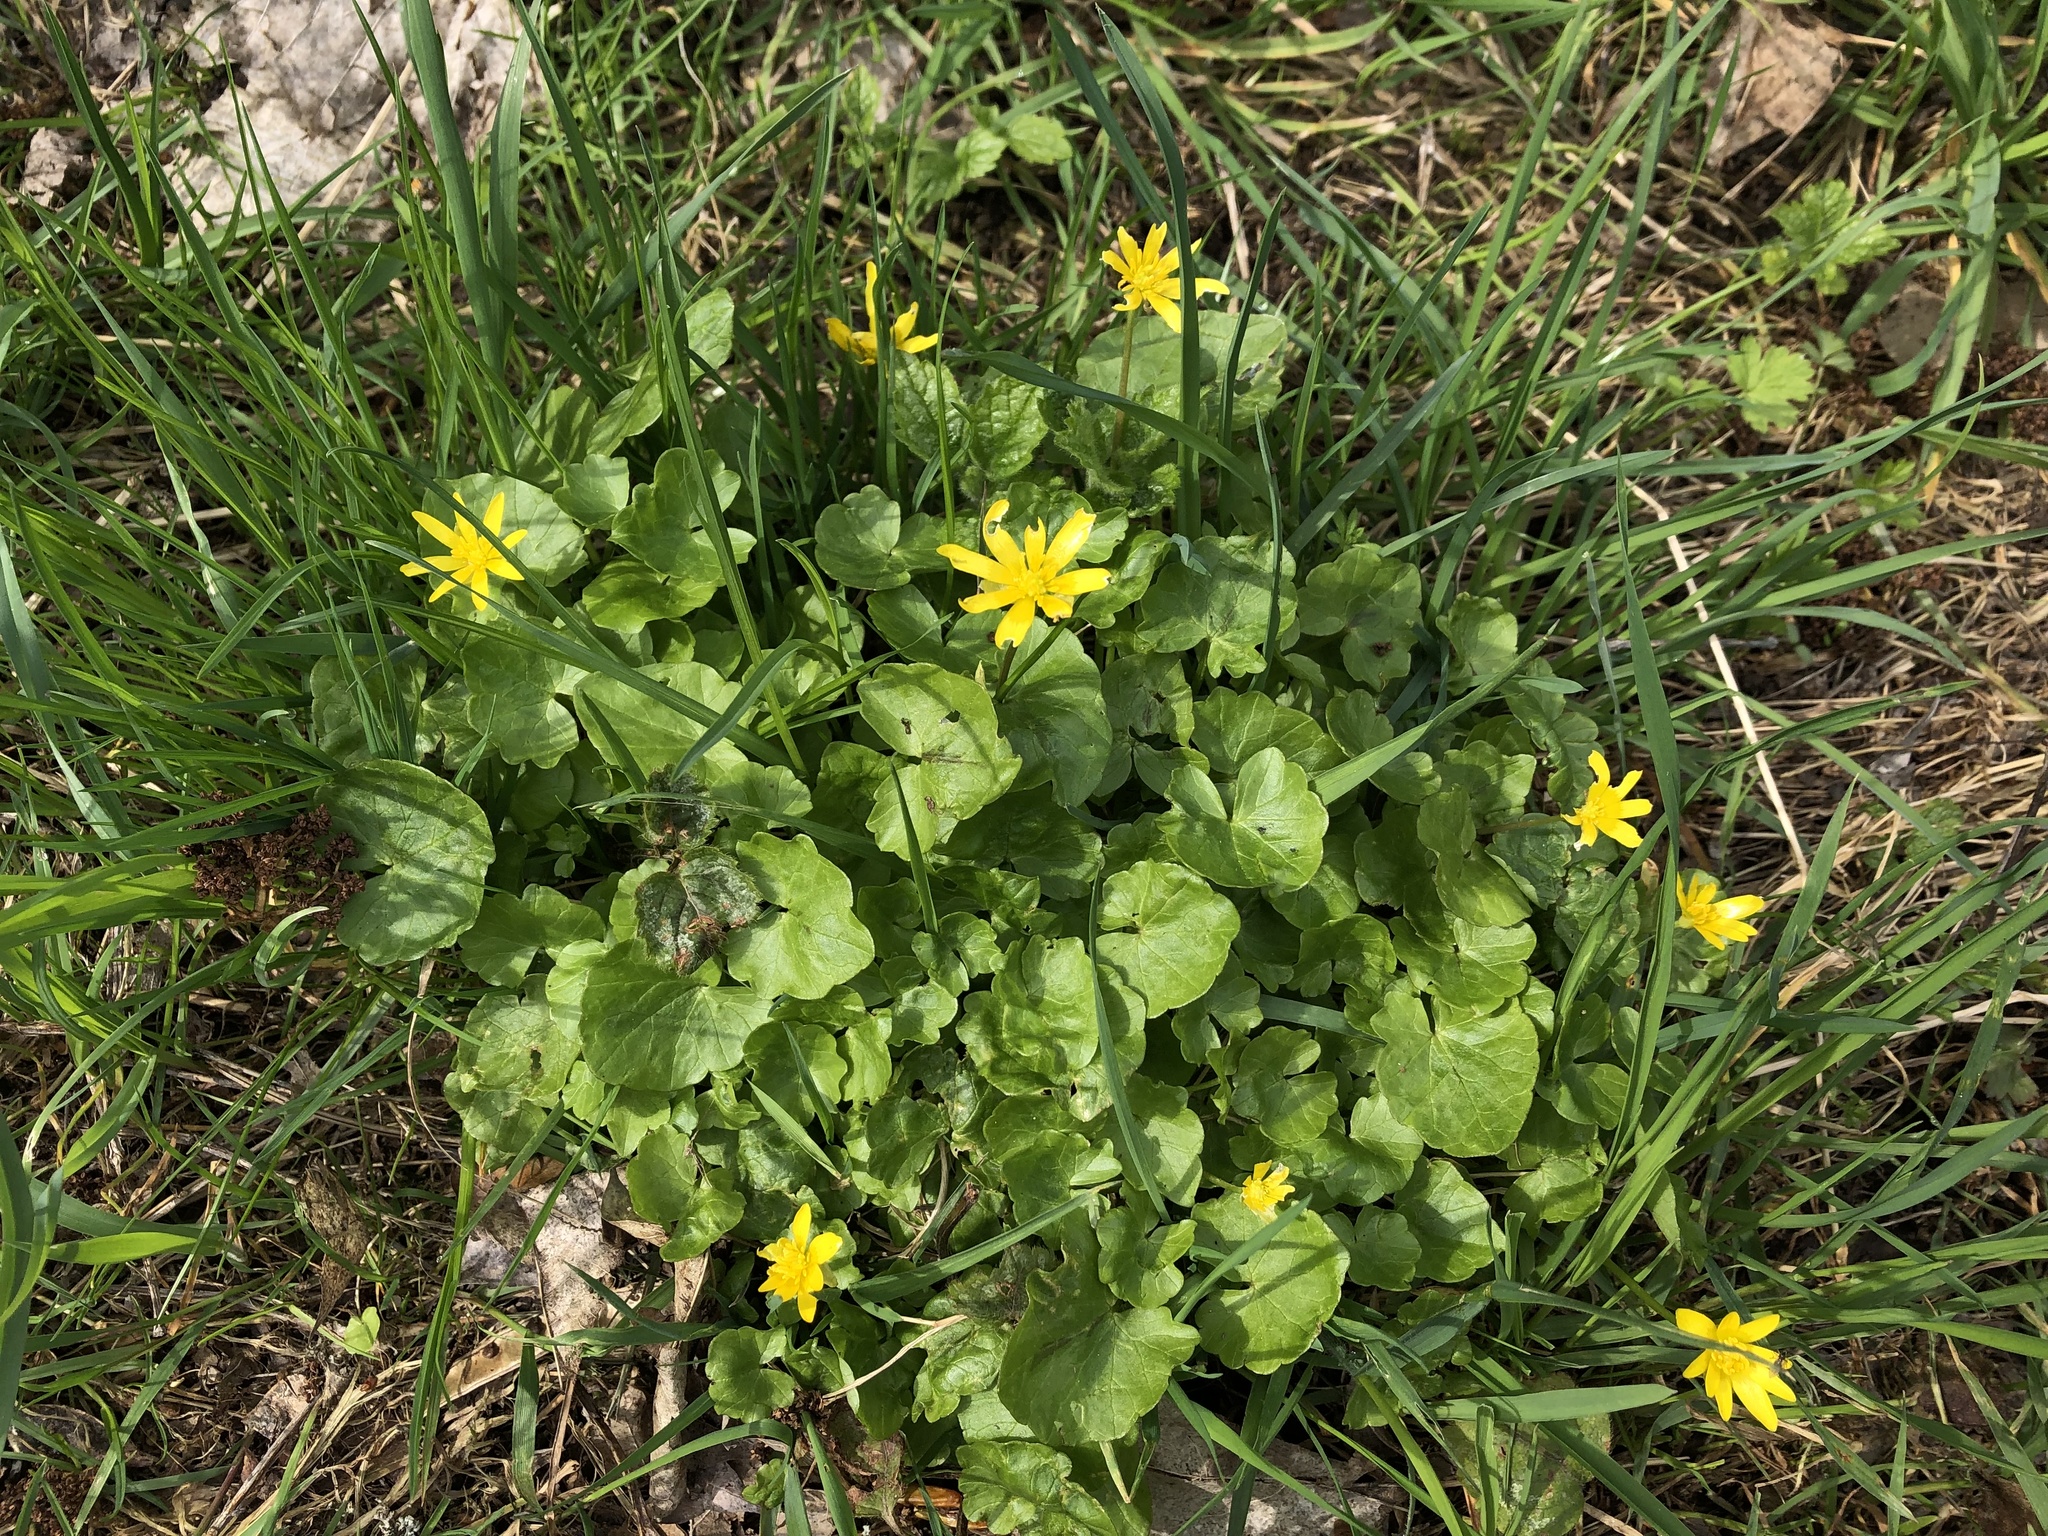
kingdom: Plantae
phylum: Tracheophyta
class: Magnoliopsida
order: Ranunculales
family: Ranunculaceae
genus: Ficaria
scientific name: Ficaria verna
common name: Lesser celandine
